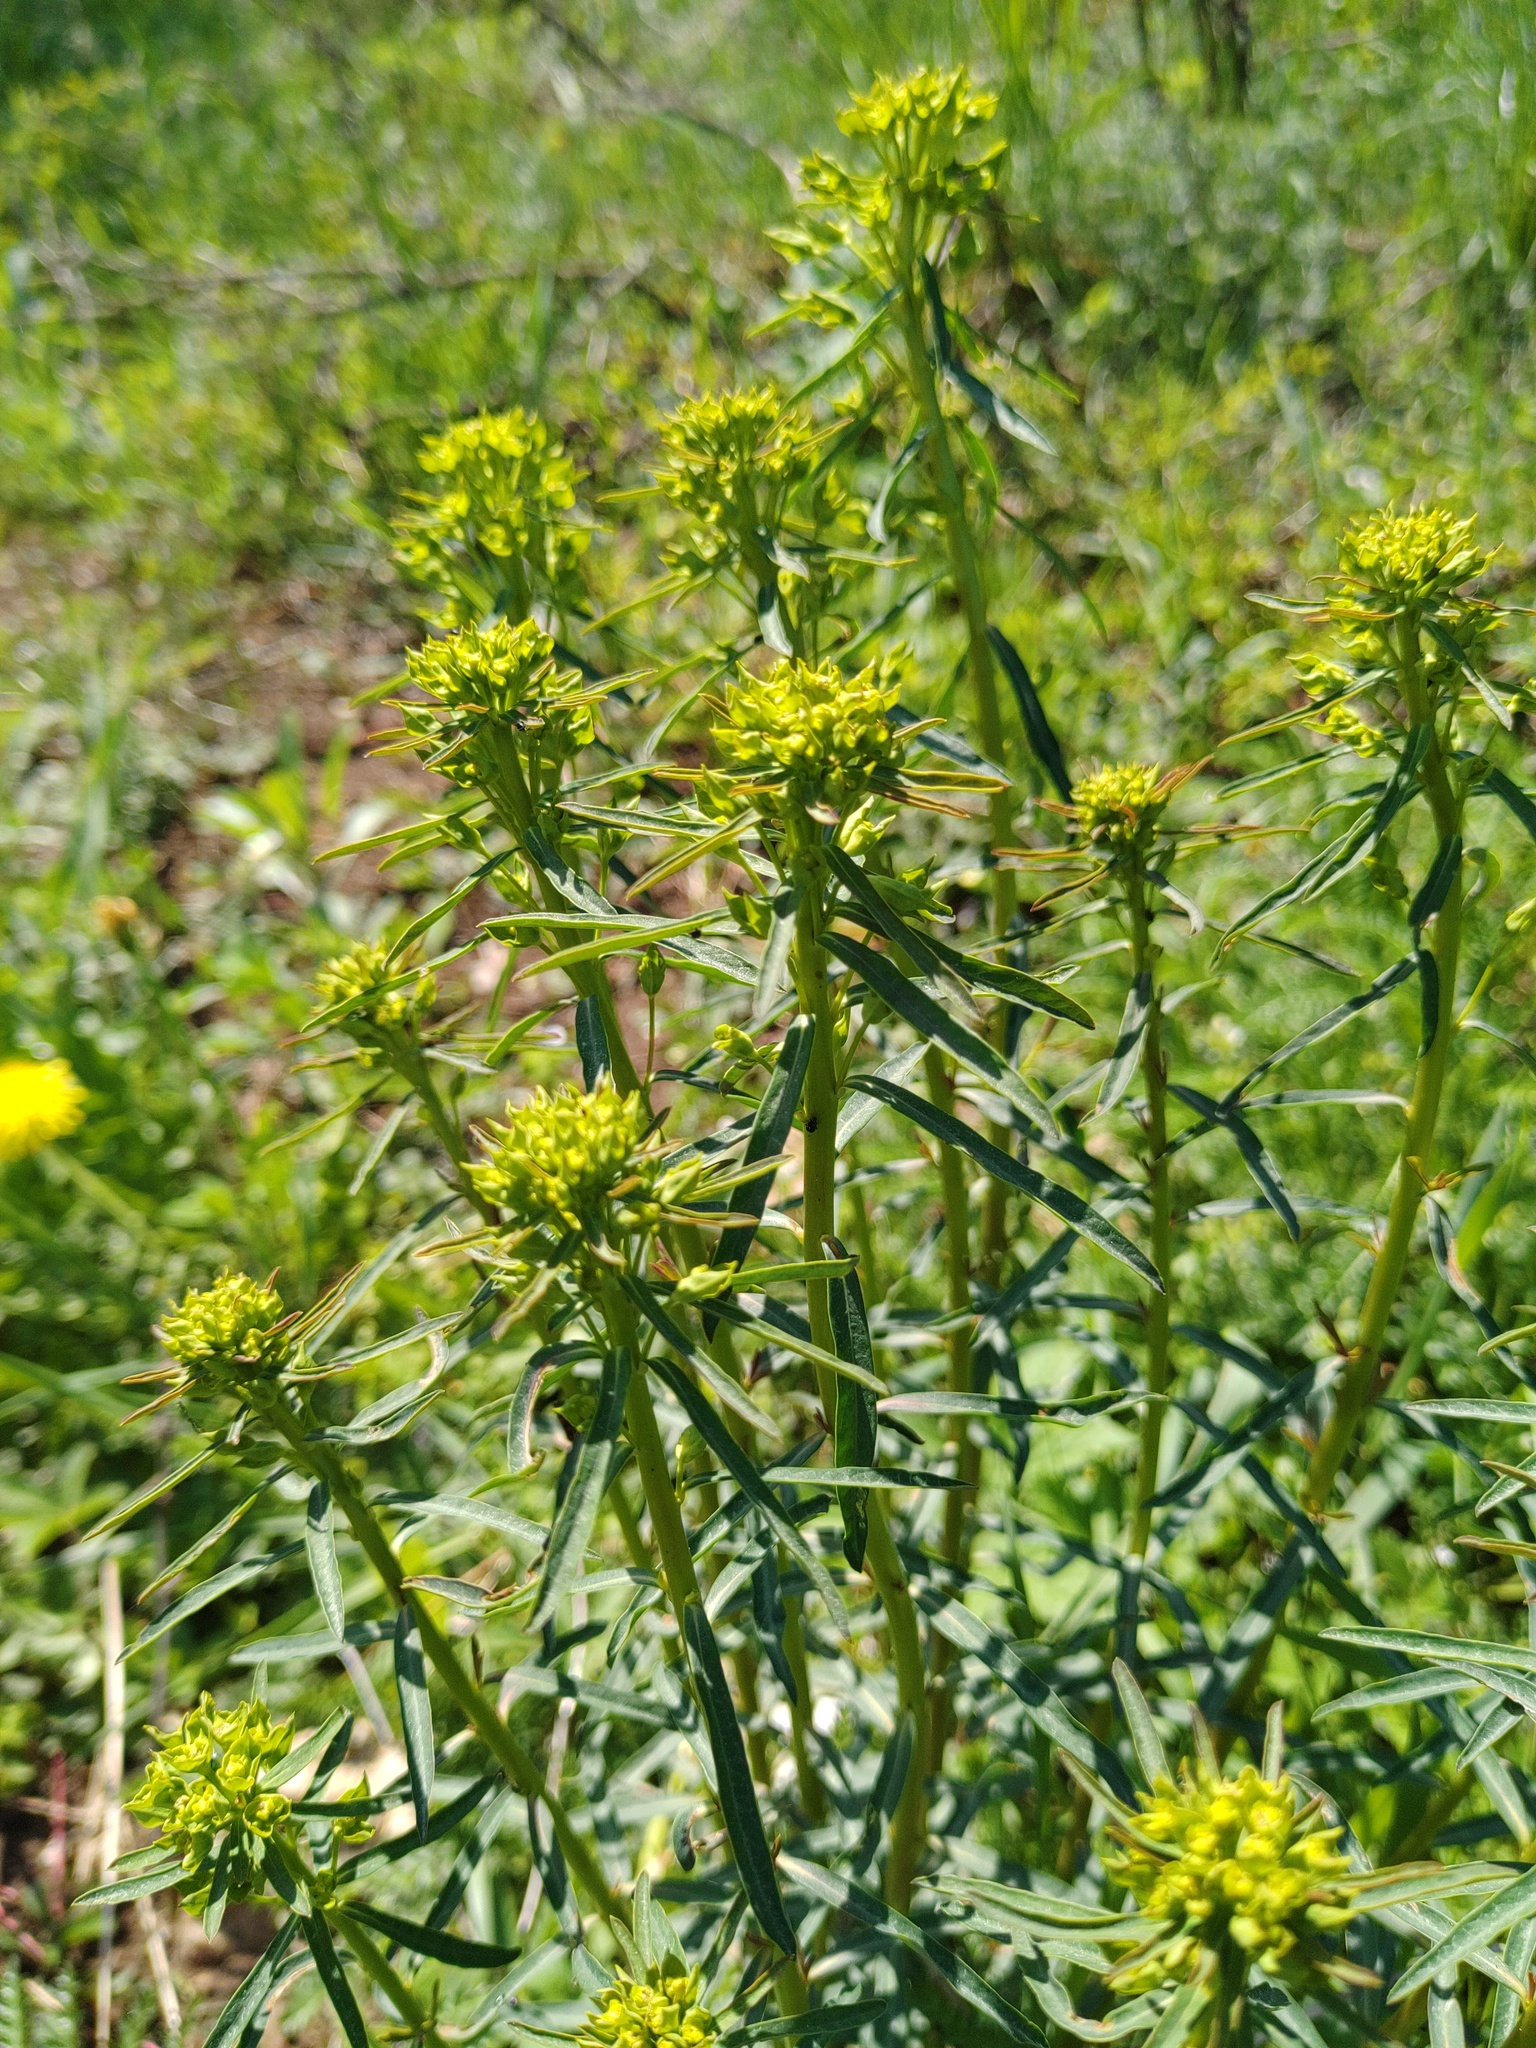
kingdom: Plantae
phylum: Tracheophyta
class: Magnoliopsida
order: Malpighiales
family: Euphorbiaceae
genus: Euphorbia
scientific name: Euphorbia esula
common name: Leafy spurge
